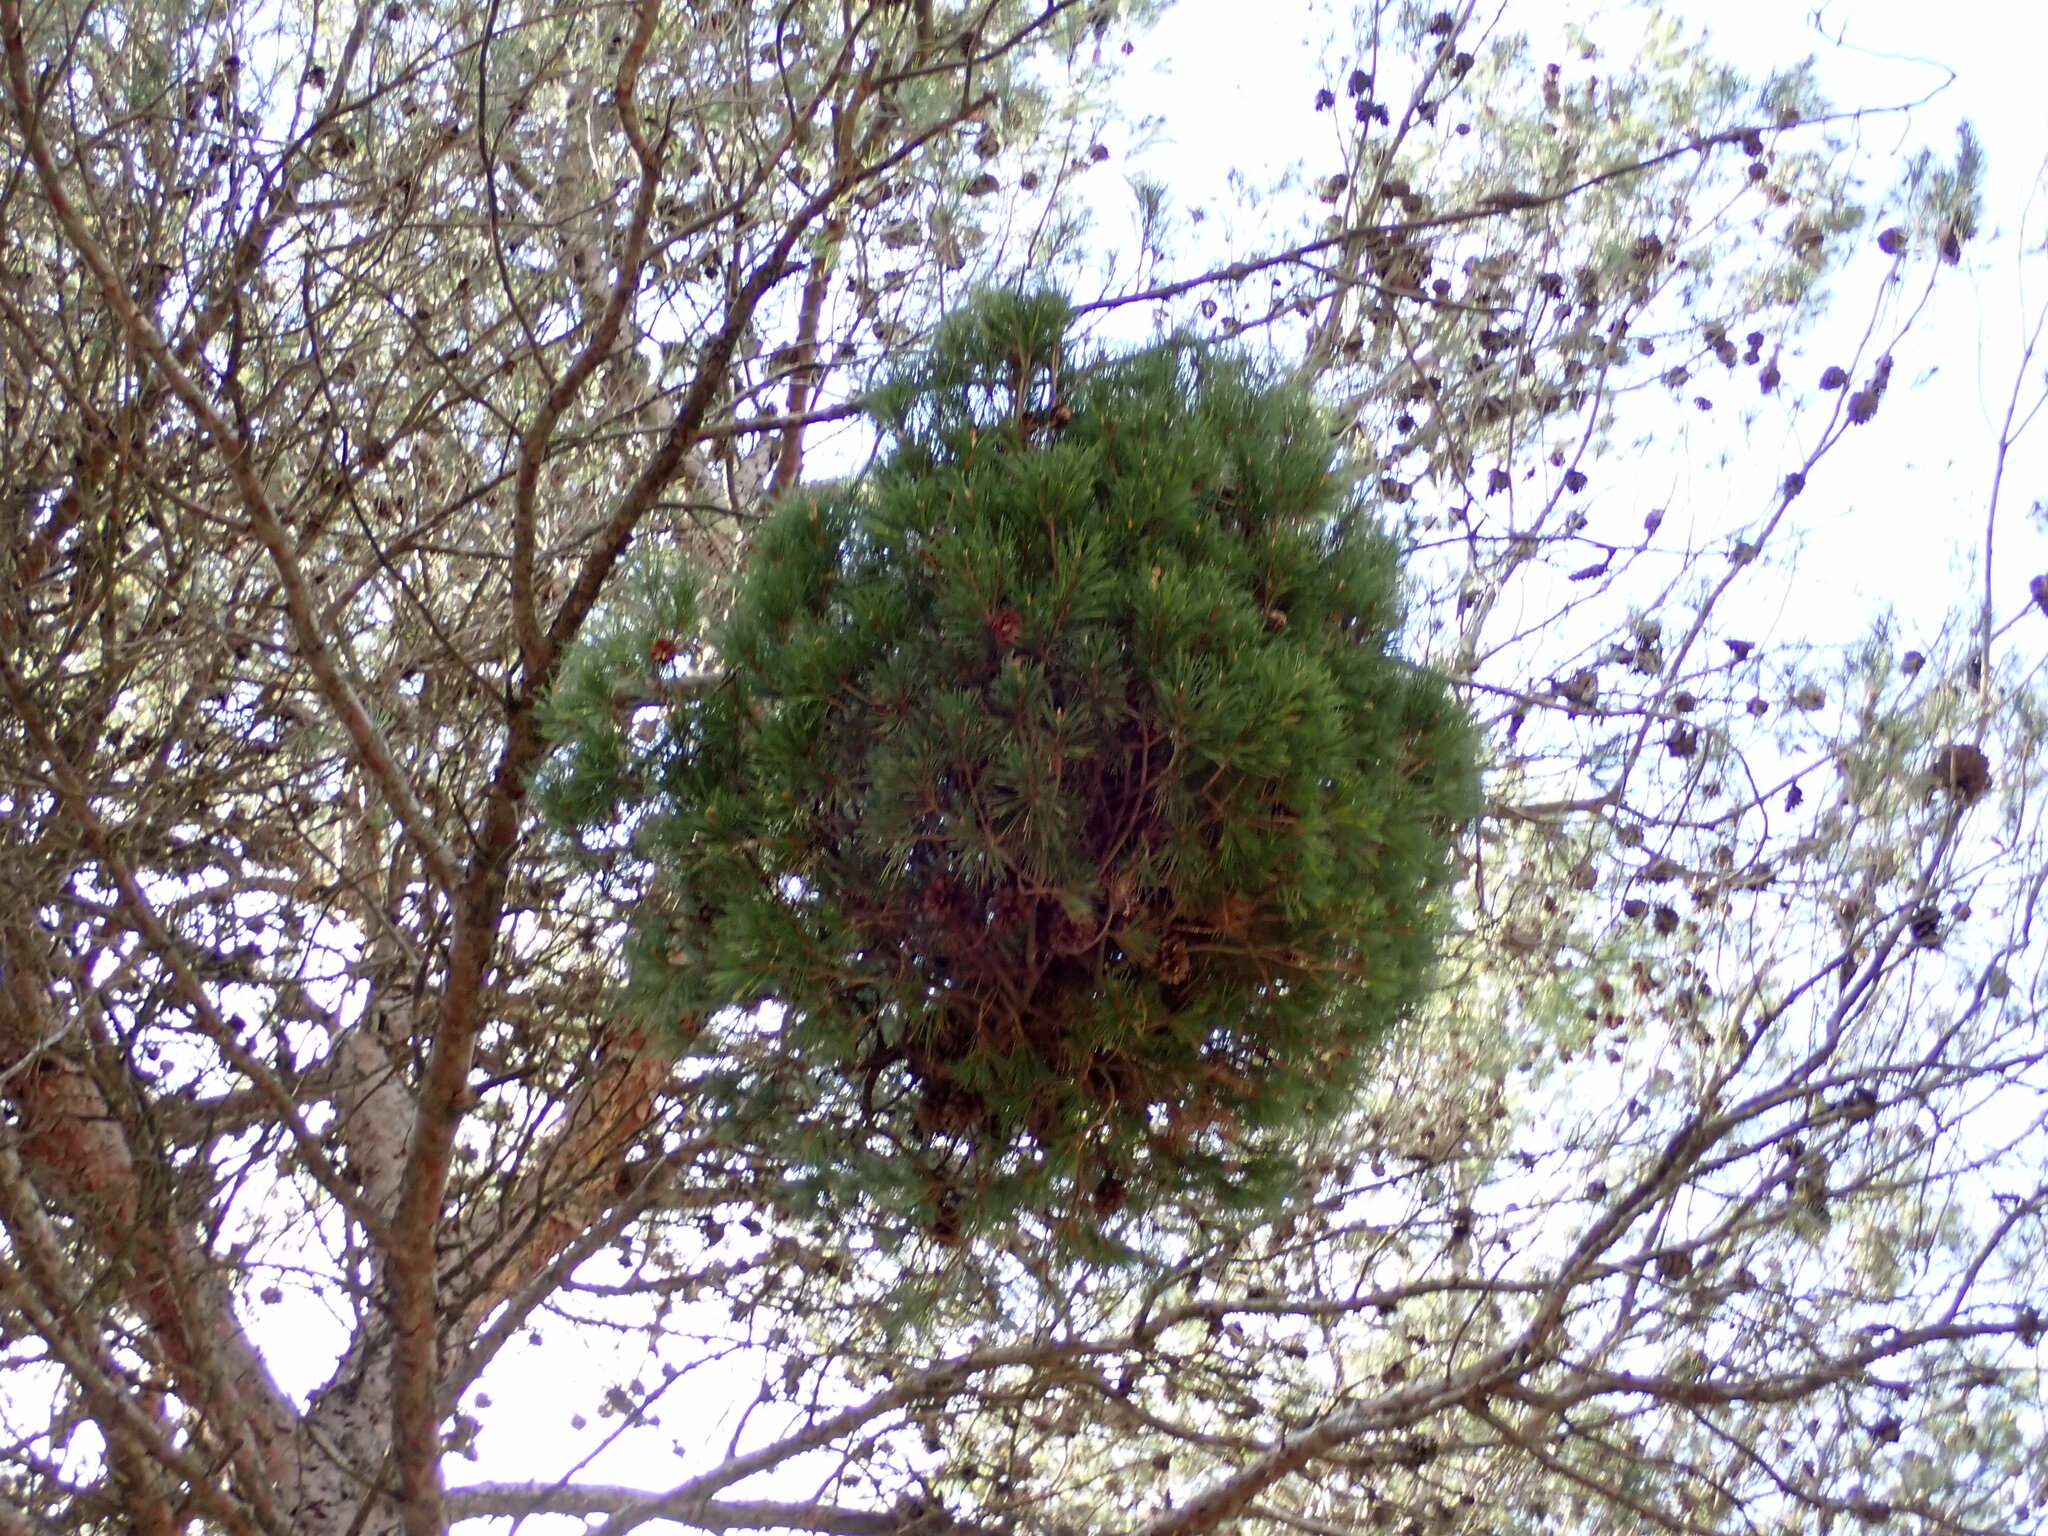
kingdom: Bacteria
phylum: Firmicutes
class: Bacilli
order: Acholeplasmatales
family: Acholeplasmataceae
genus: Phytoplasma
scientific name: Phytoplasma pini
